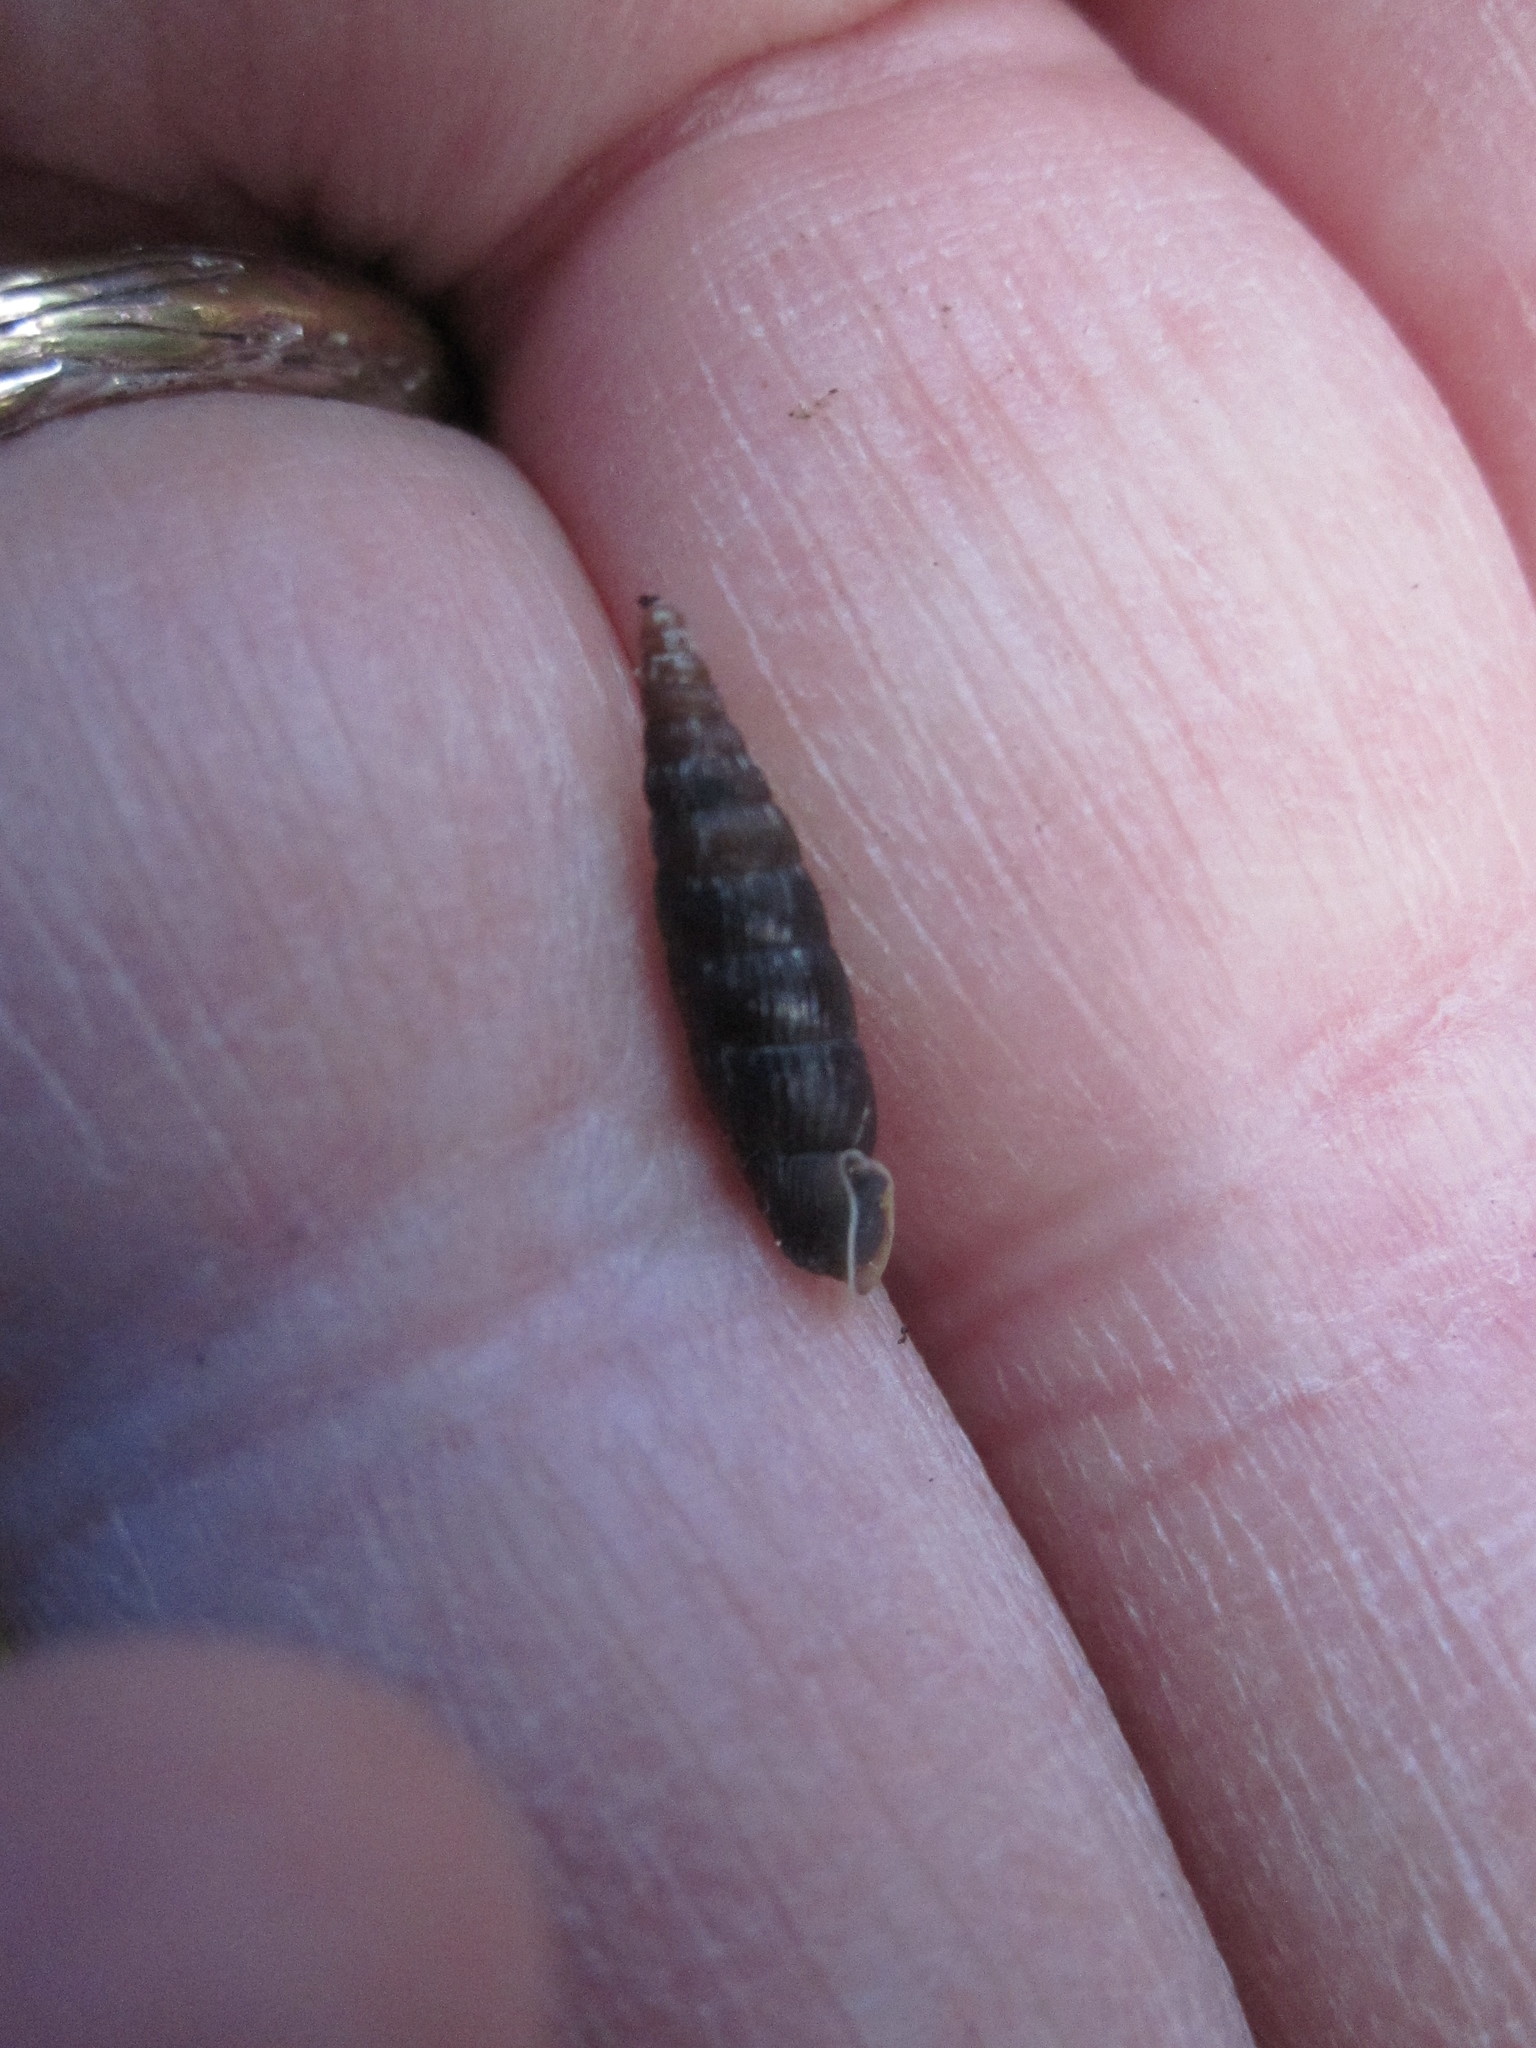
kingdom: Animalia
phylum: Mollusca
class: Gastropoda
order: Stylommatophora
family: Clausiliidae
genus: Clausilia
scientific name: Clausilia bidentata
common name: Two-toothed door snail
